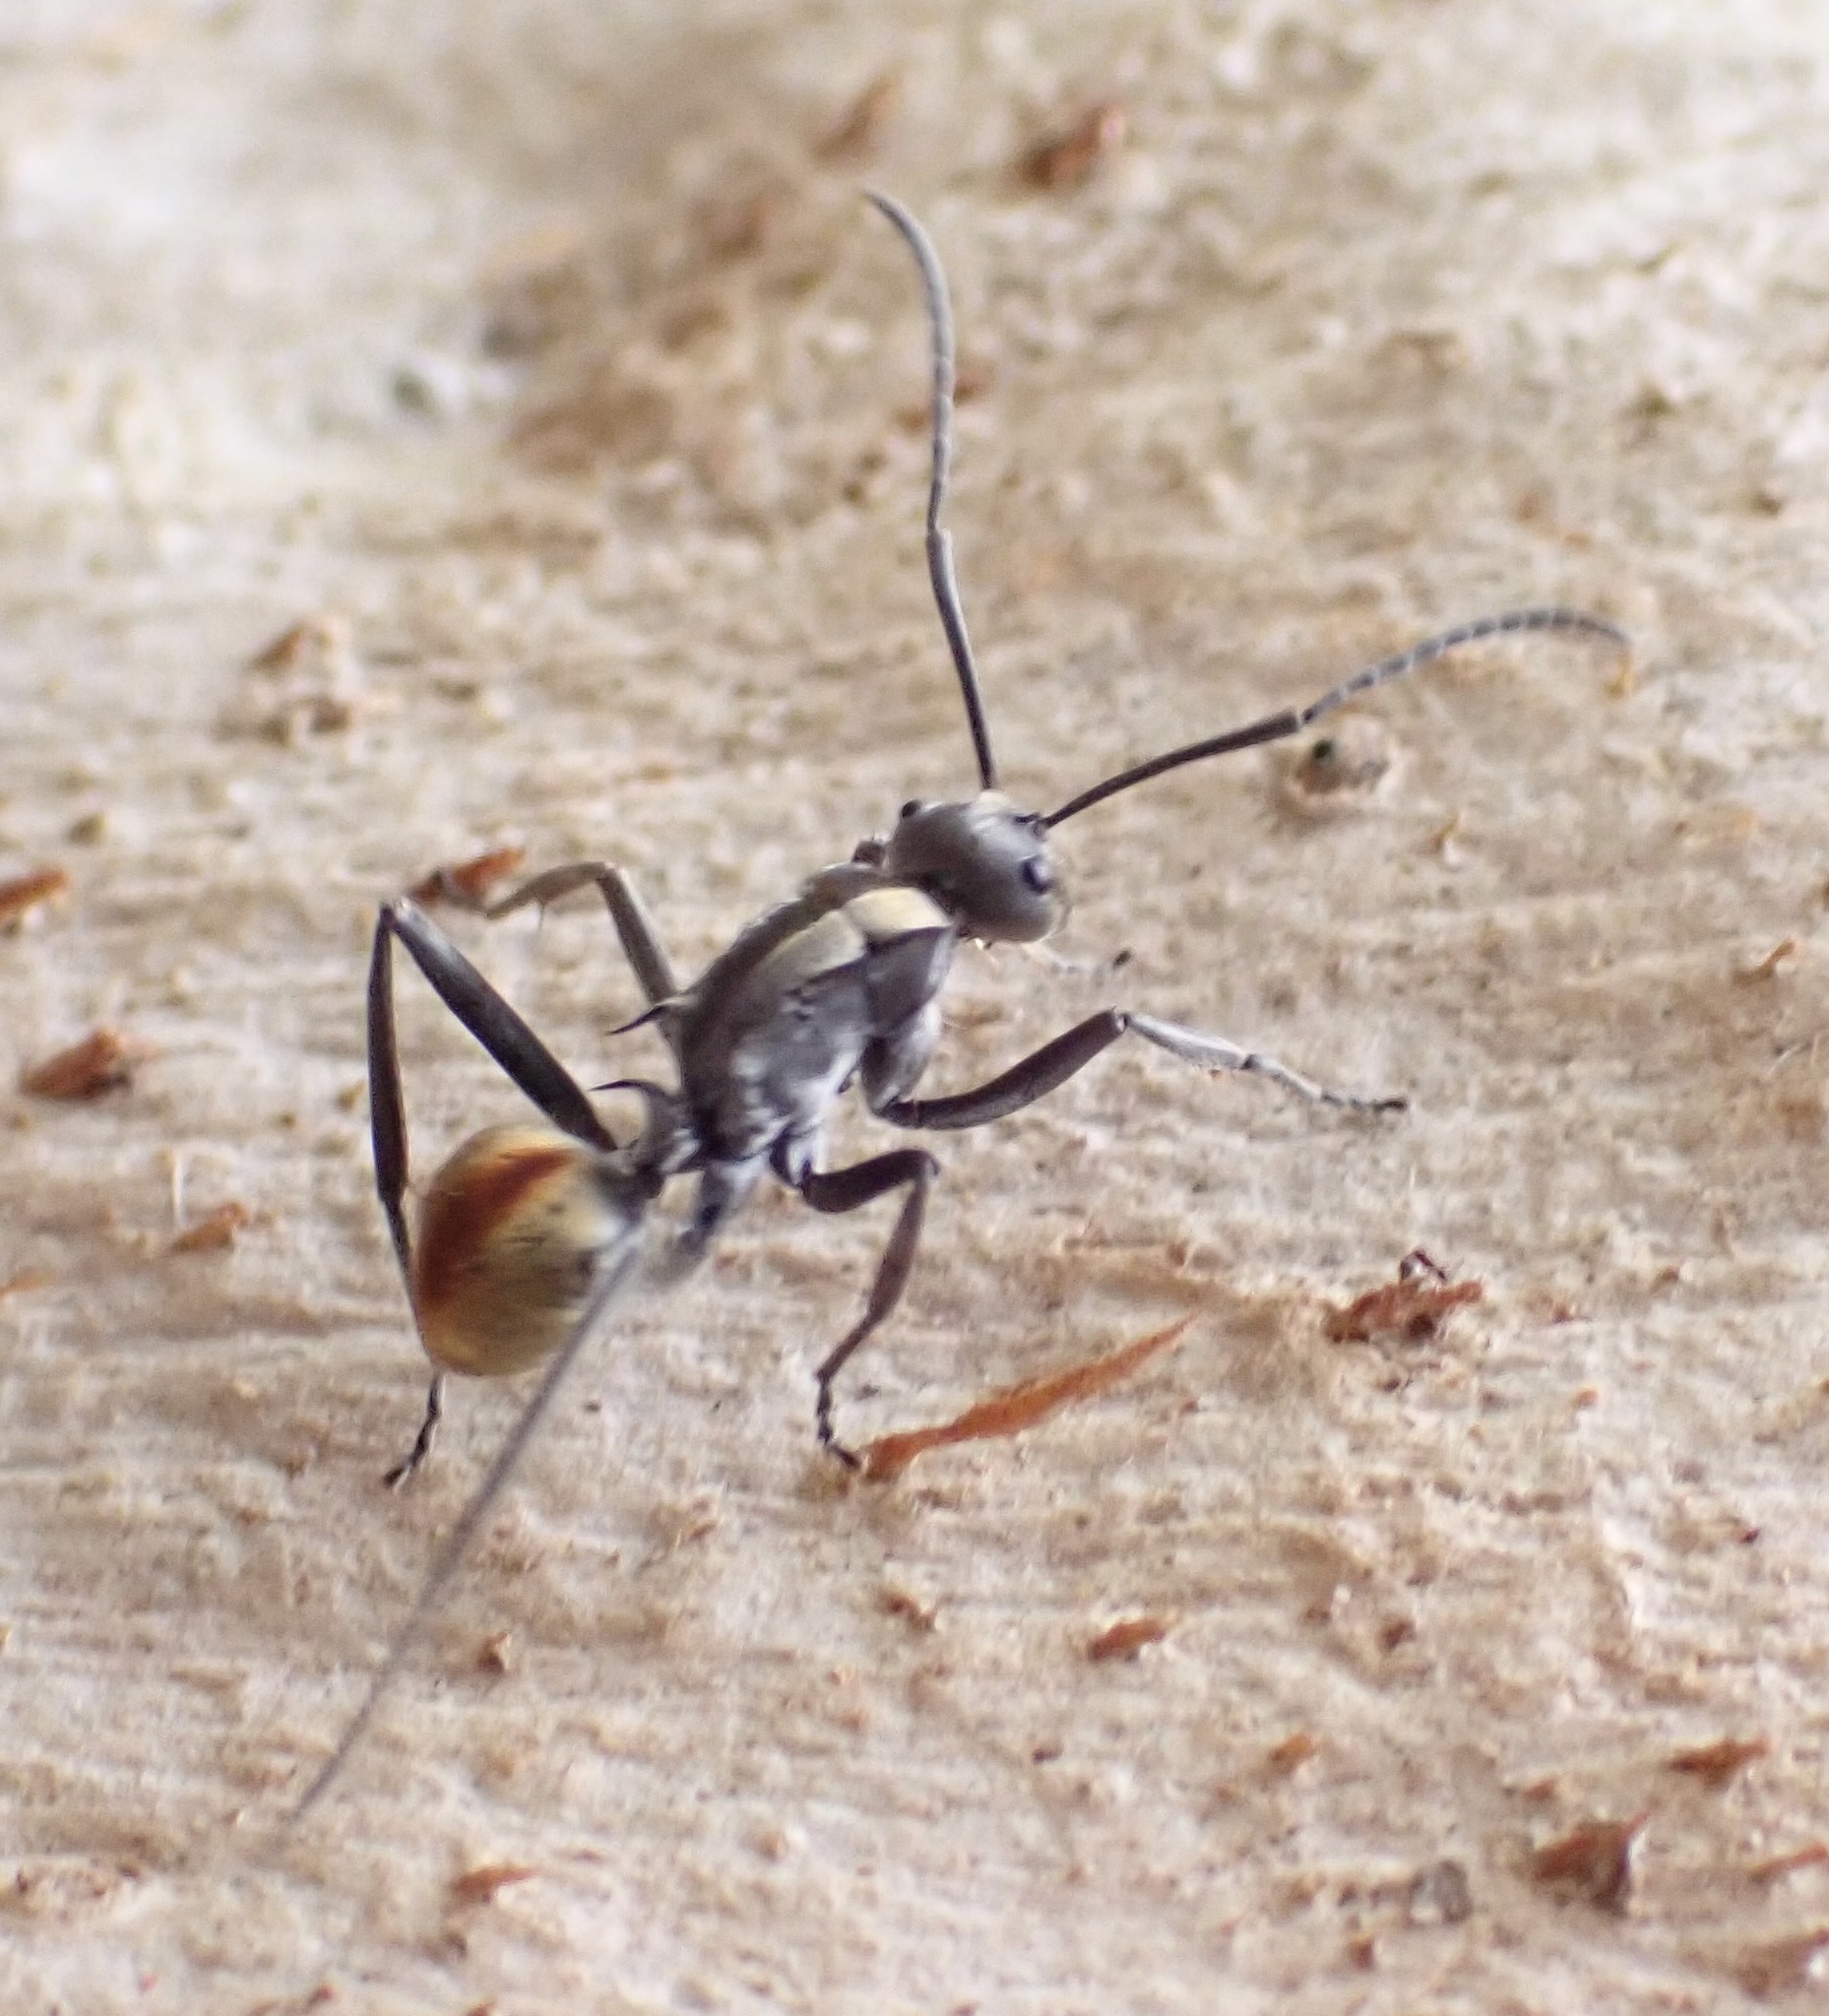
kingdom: Animalia
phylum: Arthropoda
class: Insecta
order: Hymenoptera
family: Formicidae
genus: Polyrhachis
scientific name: Polyrhachis
